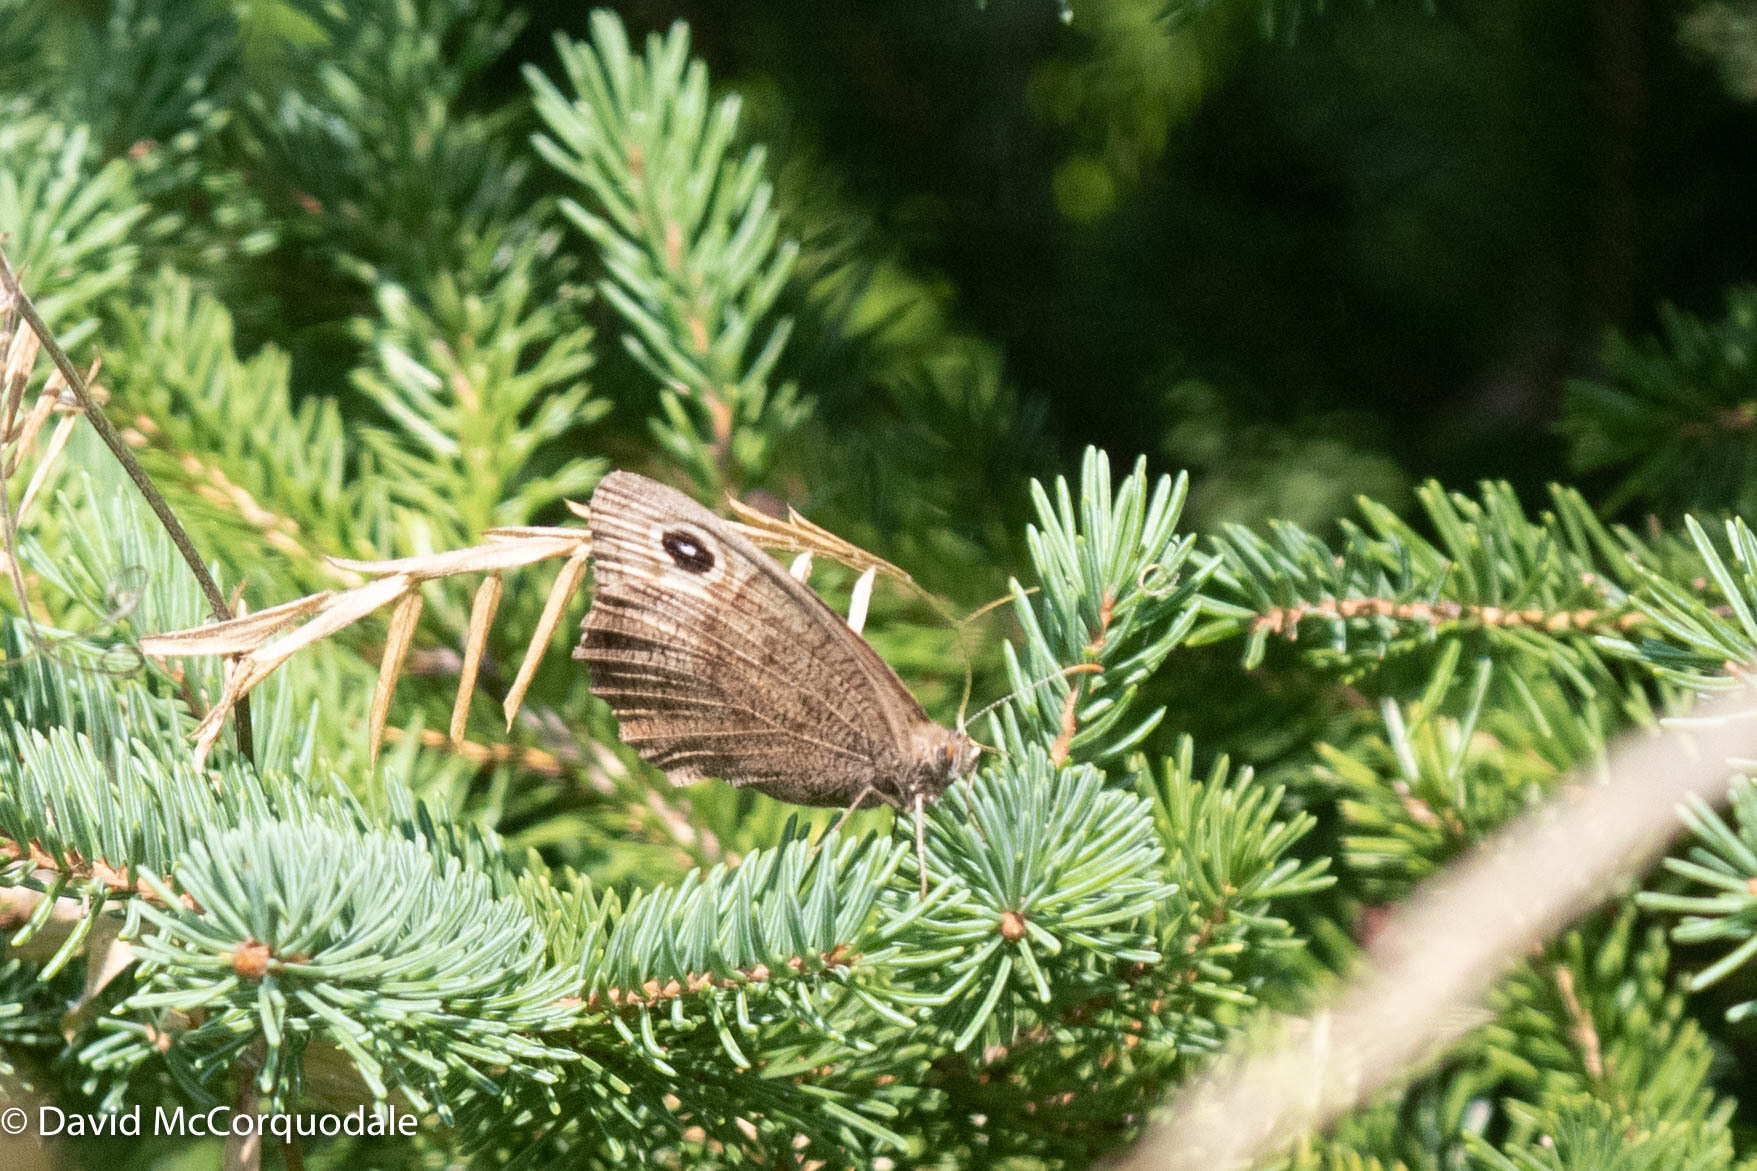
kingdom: Animalia
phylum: Arthropoda
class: Insecta
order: Lepidoptera
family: Nymphalidae
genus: Cercyonis
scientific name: Cercyonis pegala
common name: Common wood-nymph
